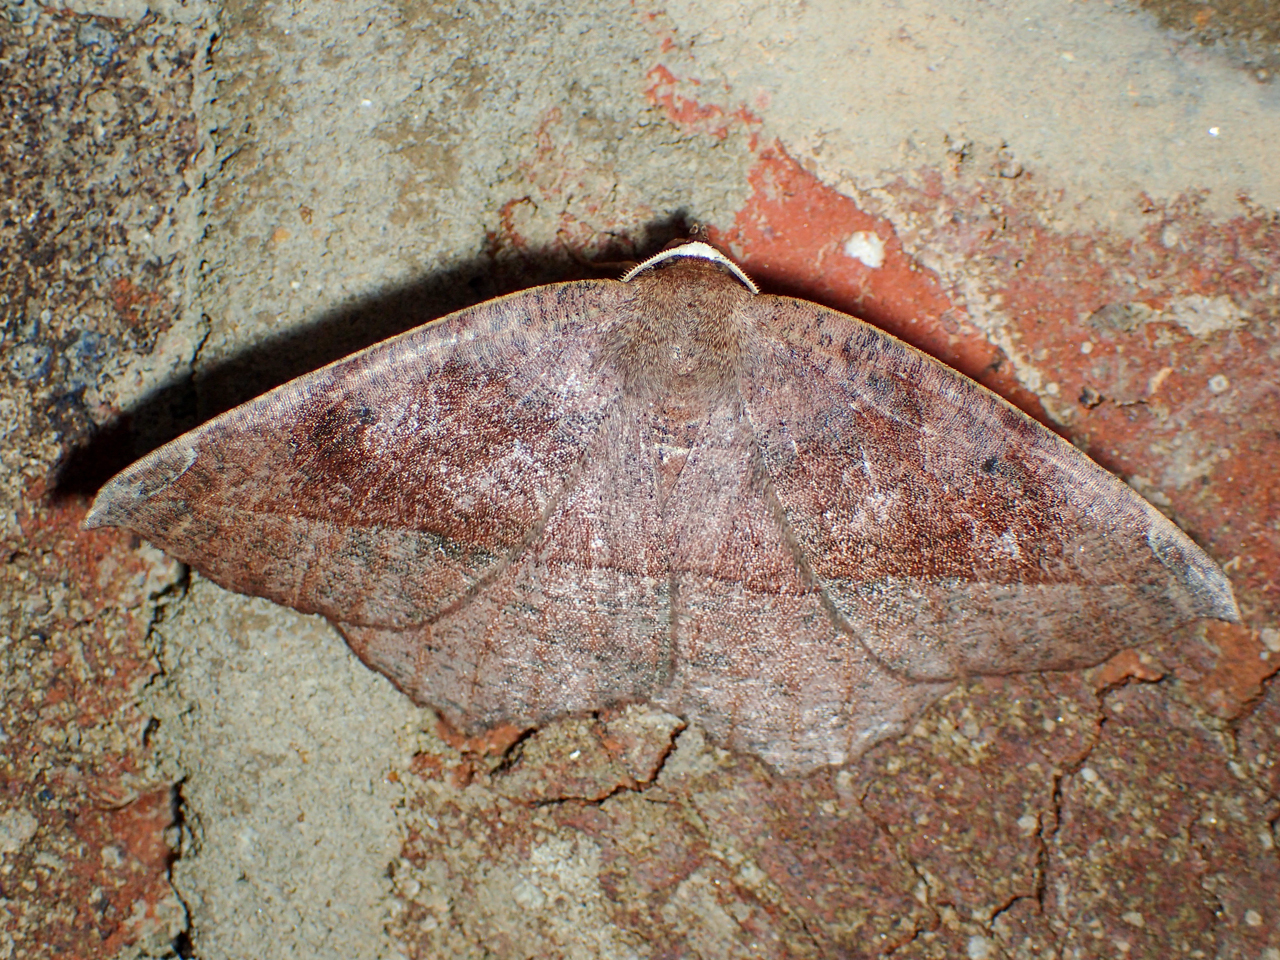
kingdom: Animalia
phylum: Arthropoda
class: Insecta
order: Lepidoptera
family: Geometridae
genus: Eutrapela
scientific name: Eutrapela clemataria
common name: Curved-toothed geometer
